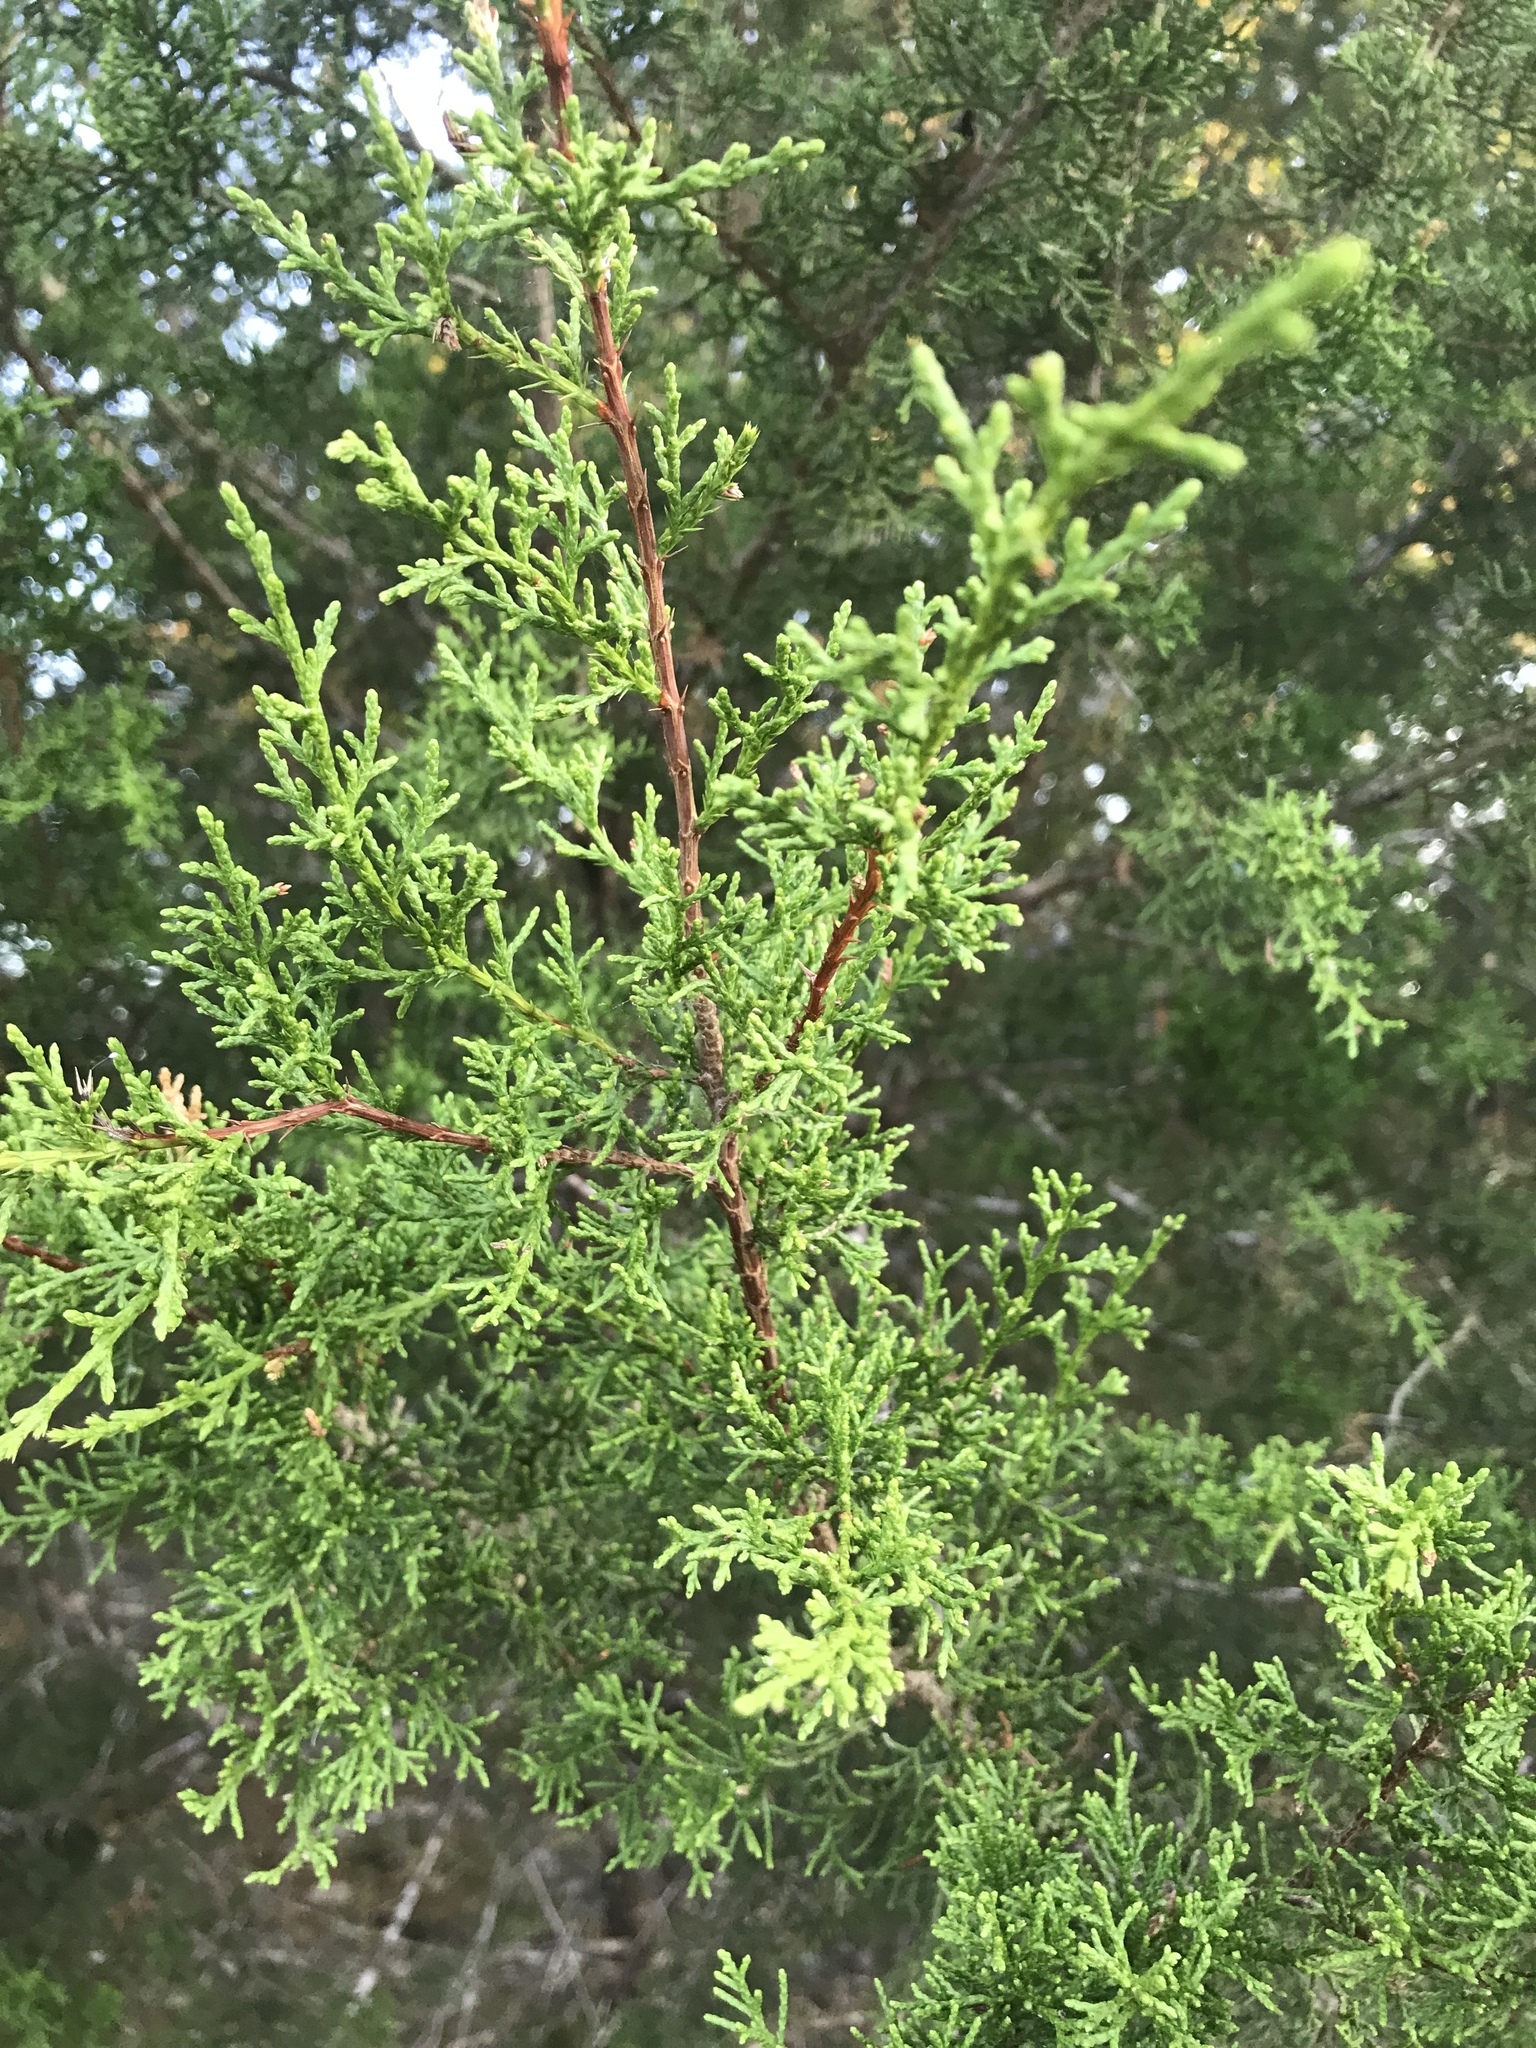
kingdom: Plantae
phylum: Tracheophyta
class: Pinopsida
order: Pinales
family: Cupressaceae
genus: Juniperus
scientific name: Juniperus ashei
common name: Mexican juniper
